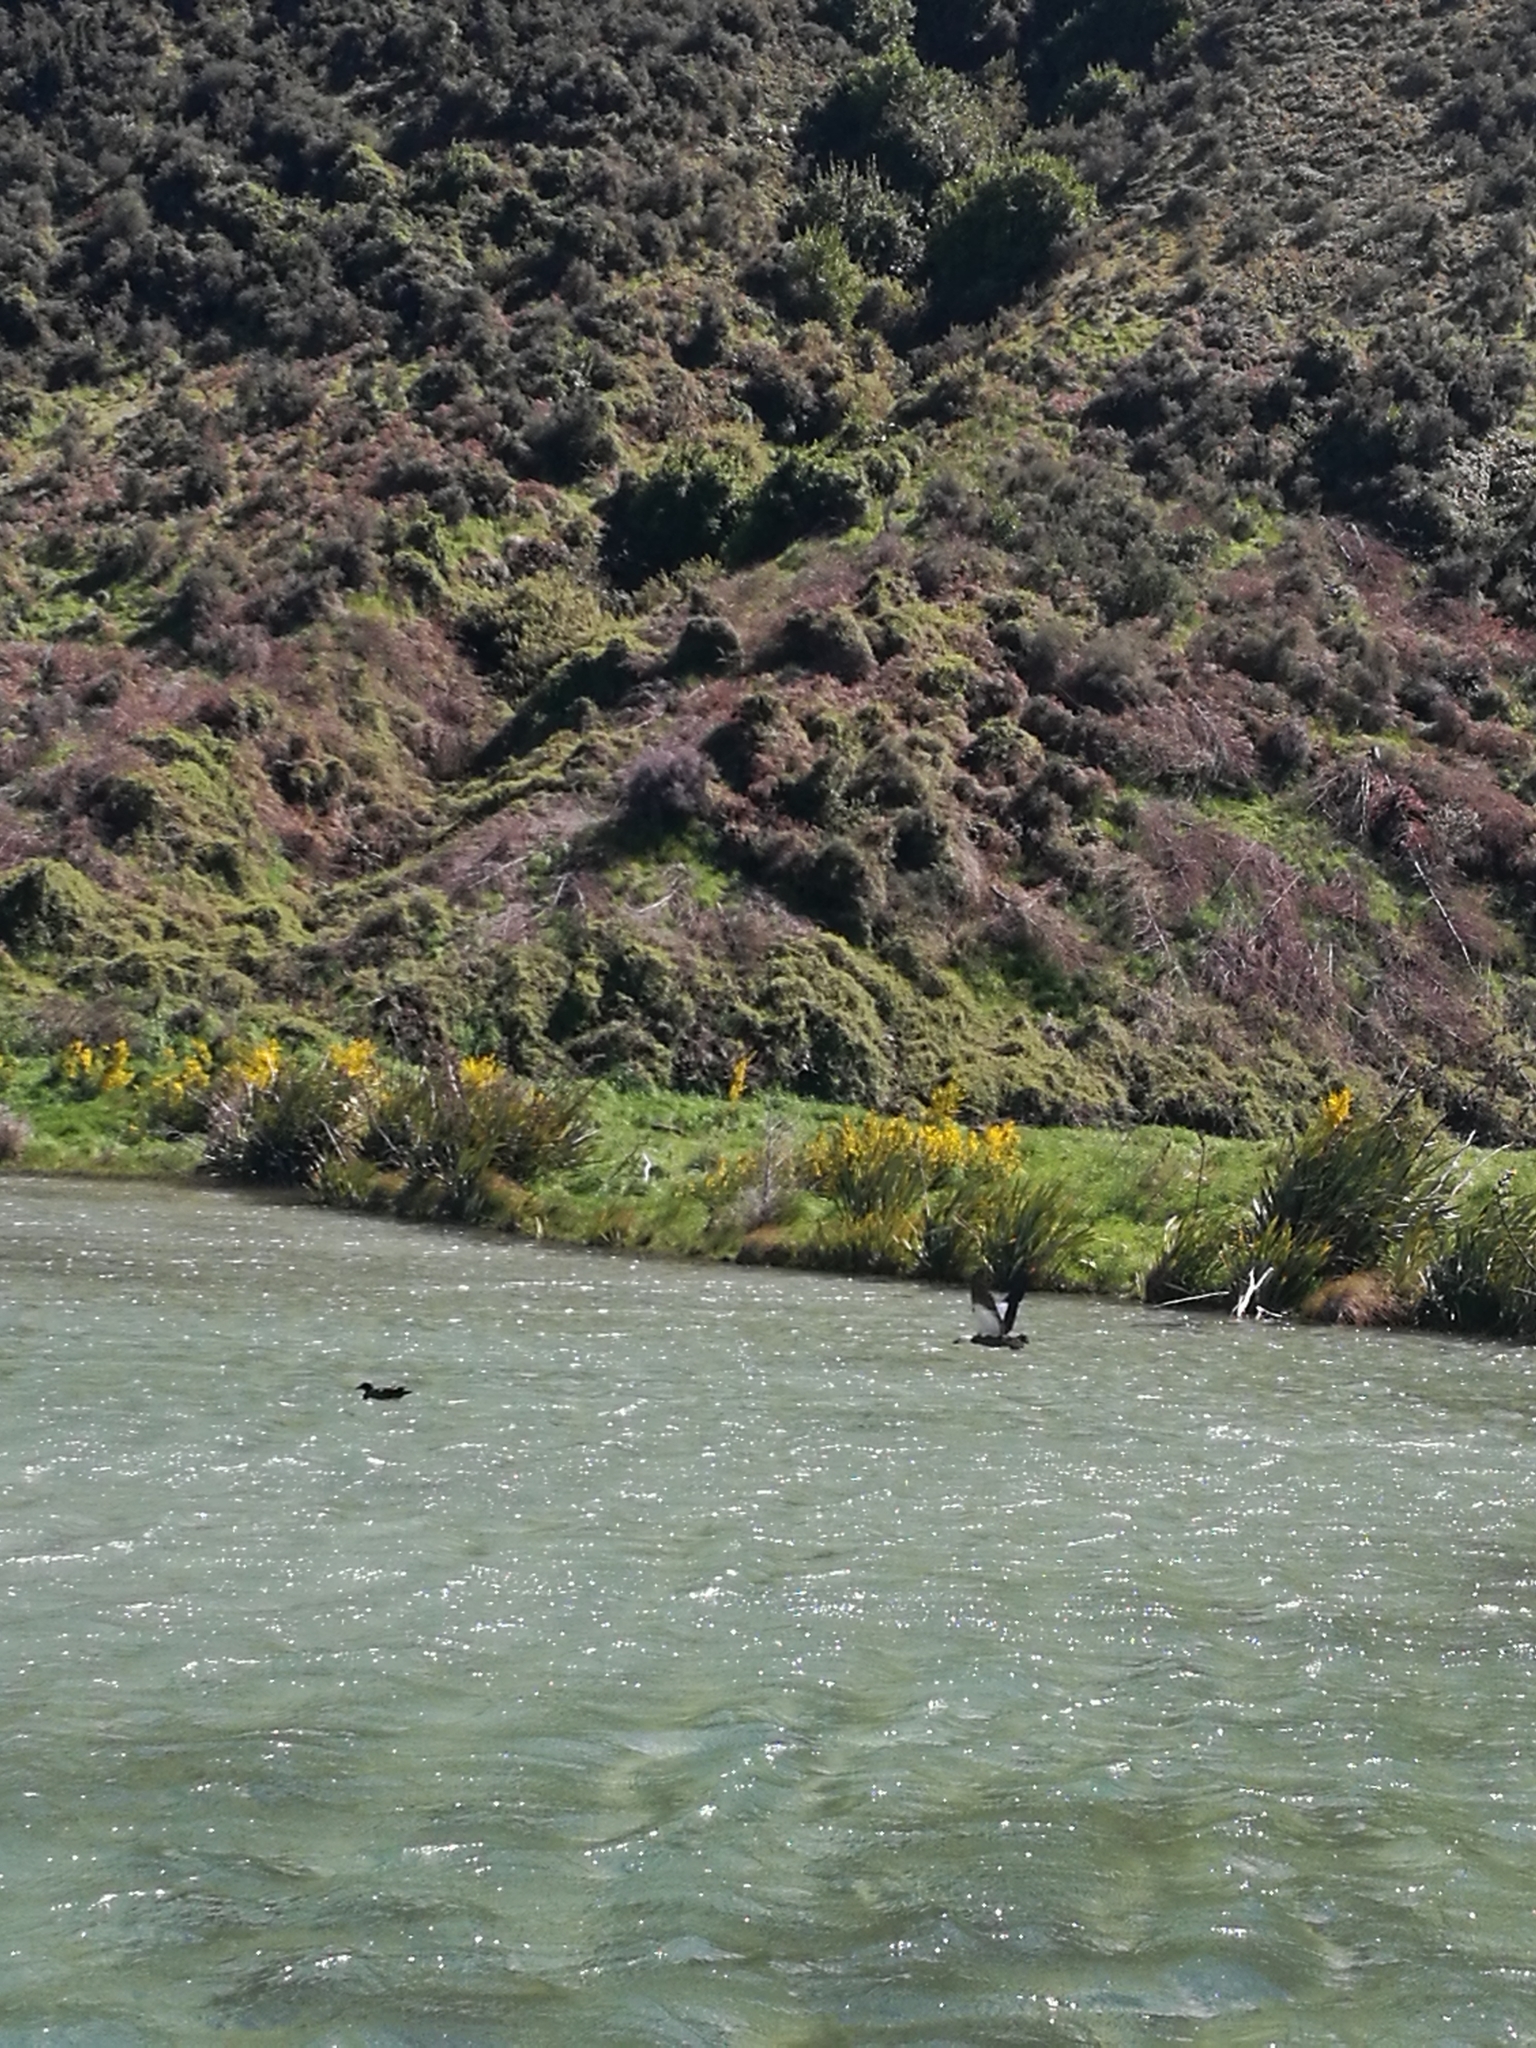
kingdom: Animalia
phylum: Chordata
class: Aves
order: Anseriformes
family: Anatidae
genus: Tadorna
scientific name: Tadorna variegata
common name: Paradise shelduck
